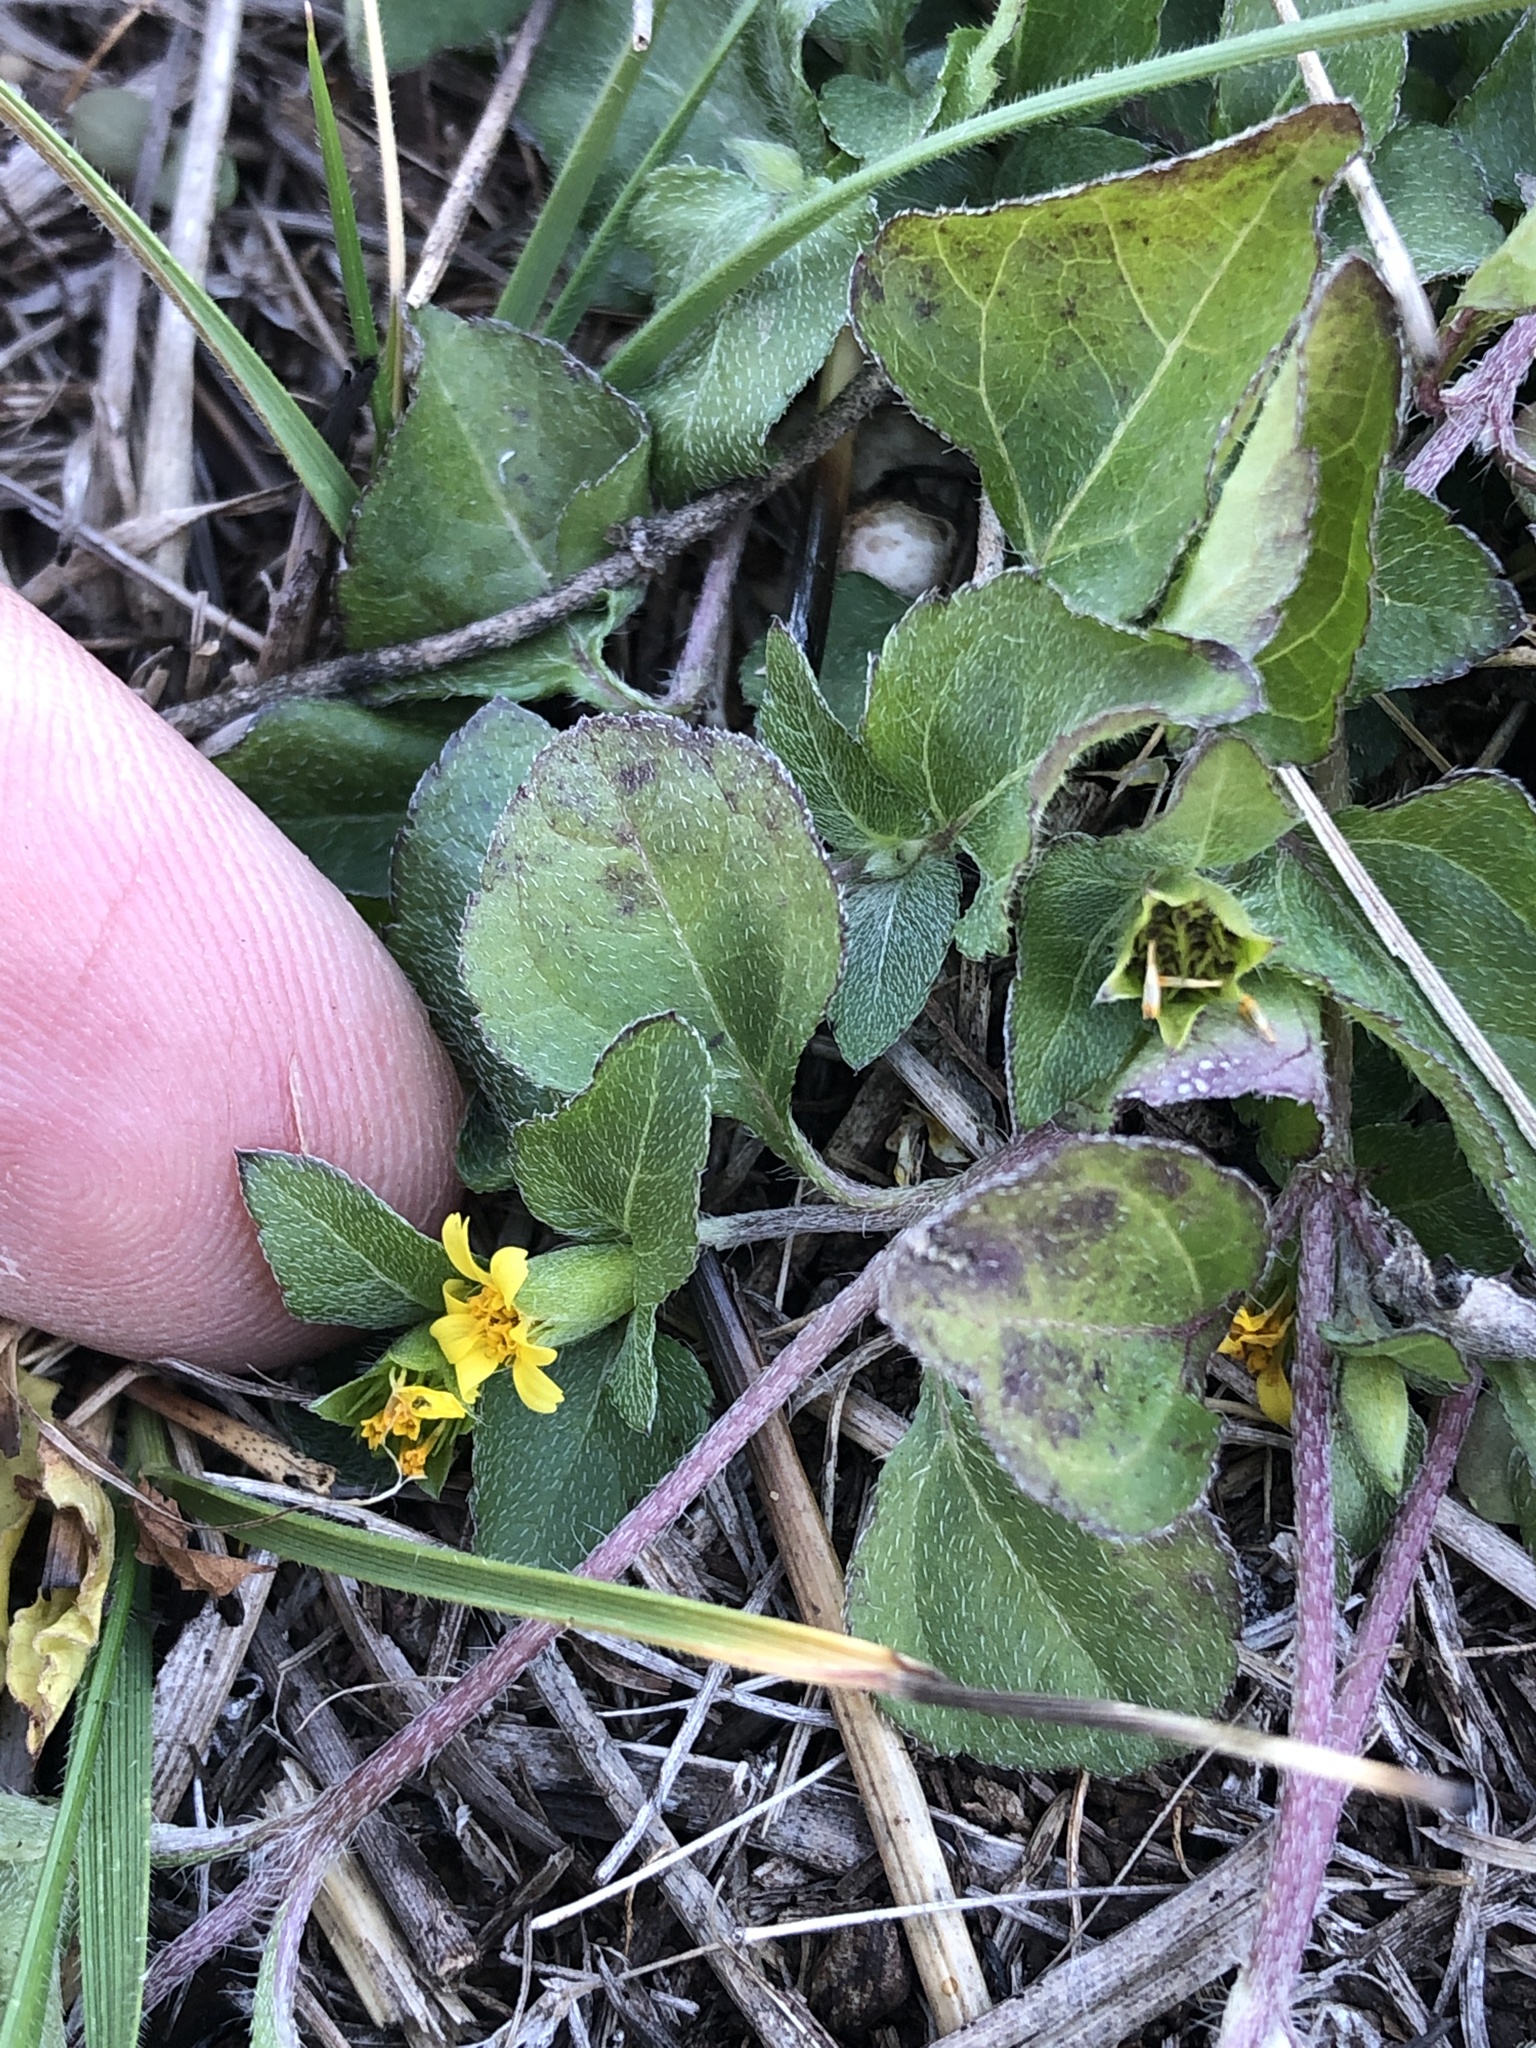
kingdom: Plantae
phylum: Tracheophyta
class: Magnoliopsida
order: Asterales
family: Asteraceae
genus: Calyptocarpus
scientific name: Calyptocarpus vialis
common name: Straggler daisy
